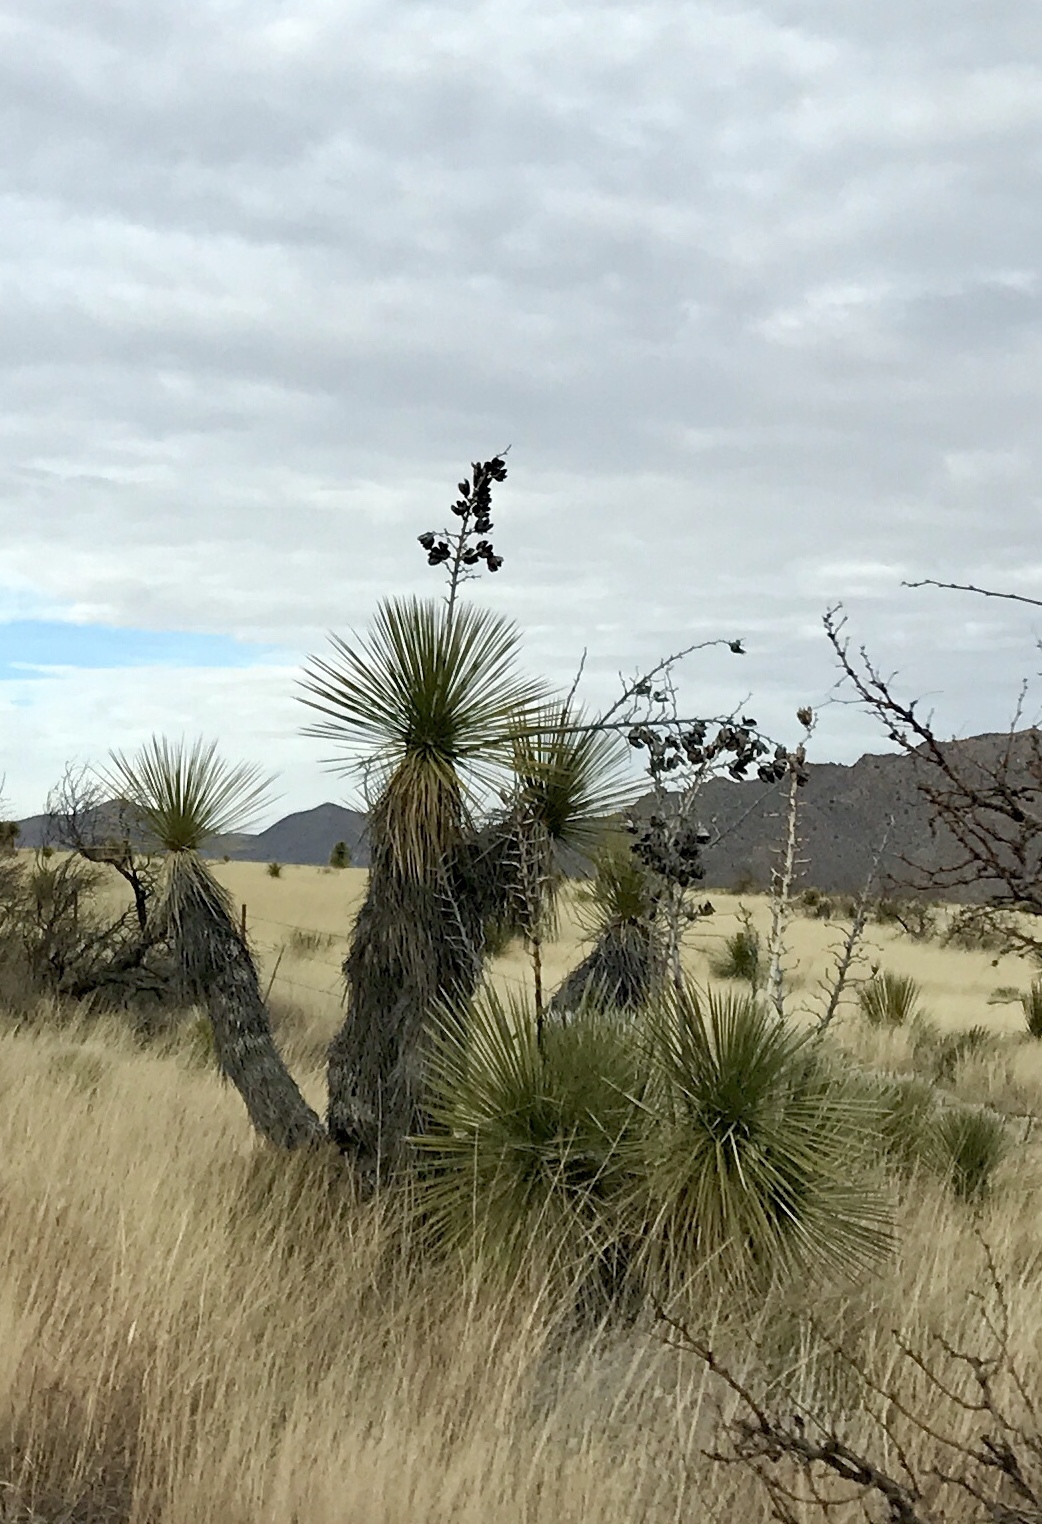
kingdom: Plantae
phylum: Tracheophyta
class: Liliopsida
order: Asparagales
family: Asparagaceae
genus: Yucca
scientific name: Yucca elata
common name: Palmella
